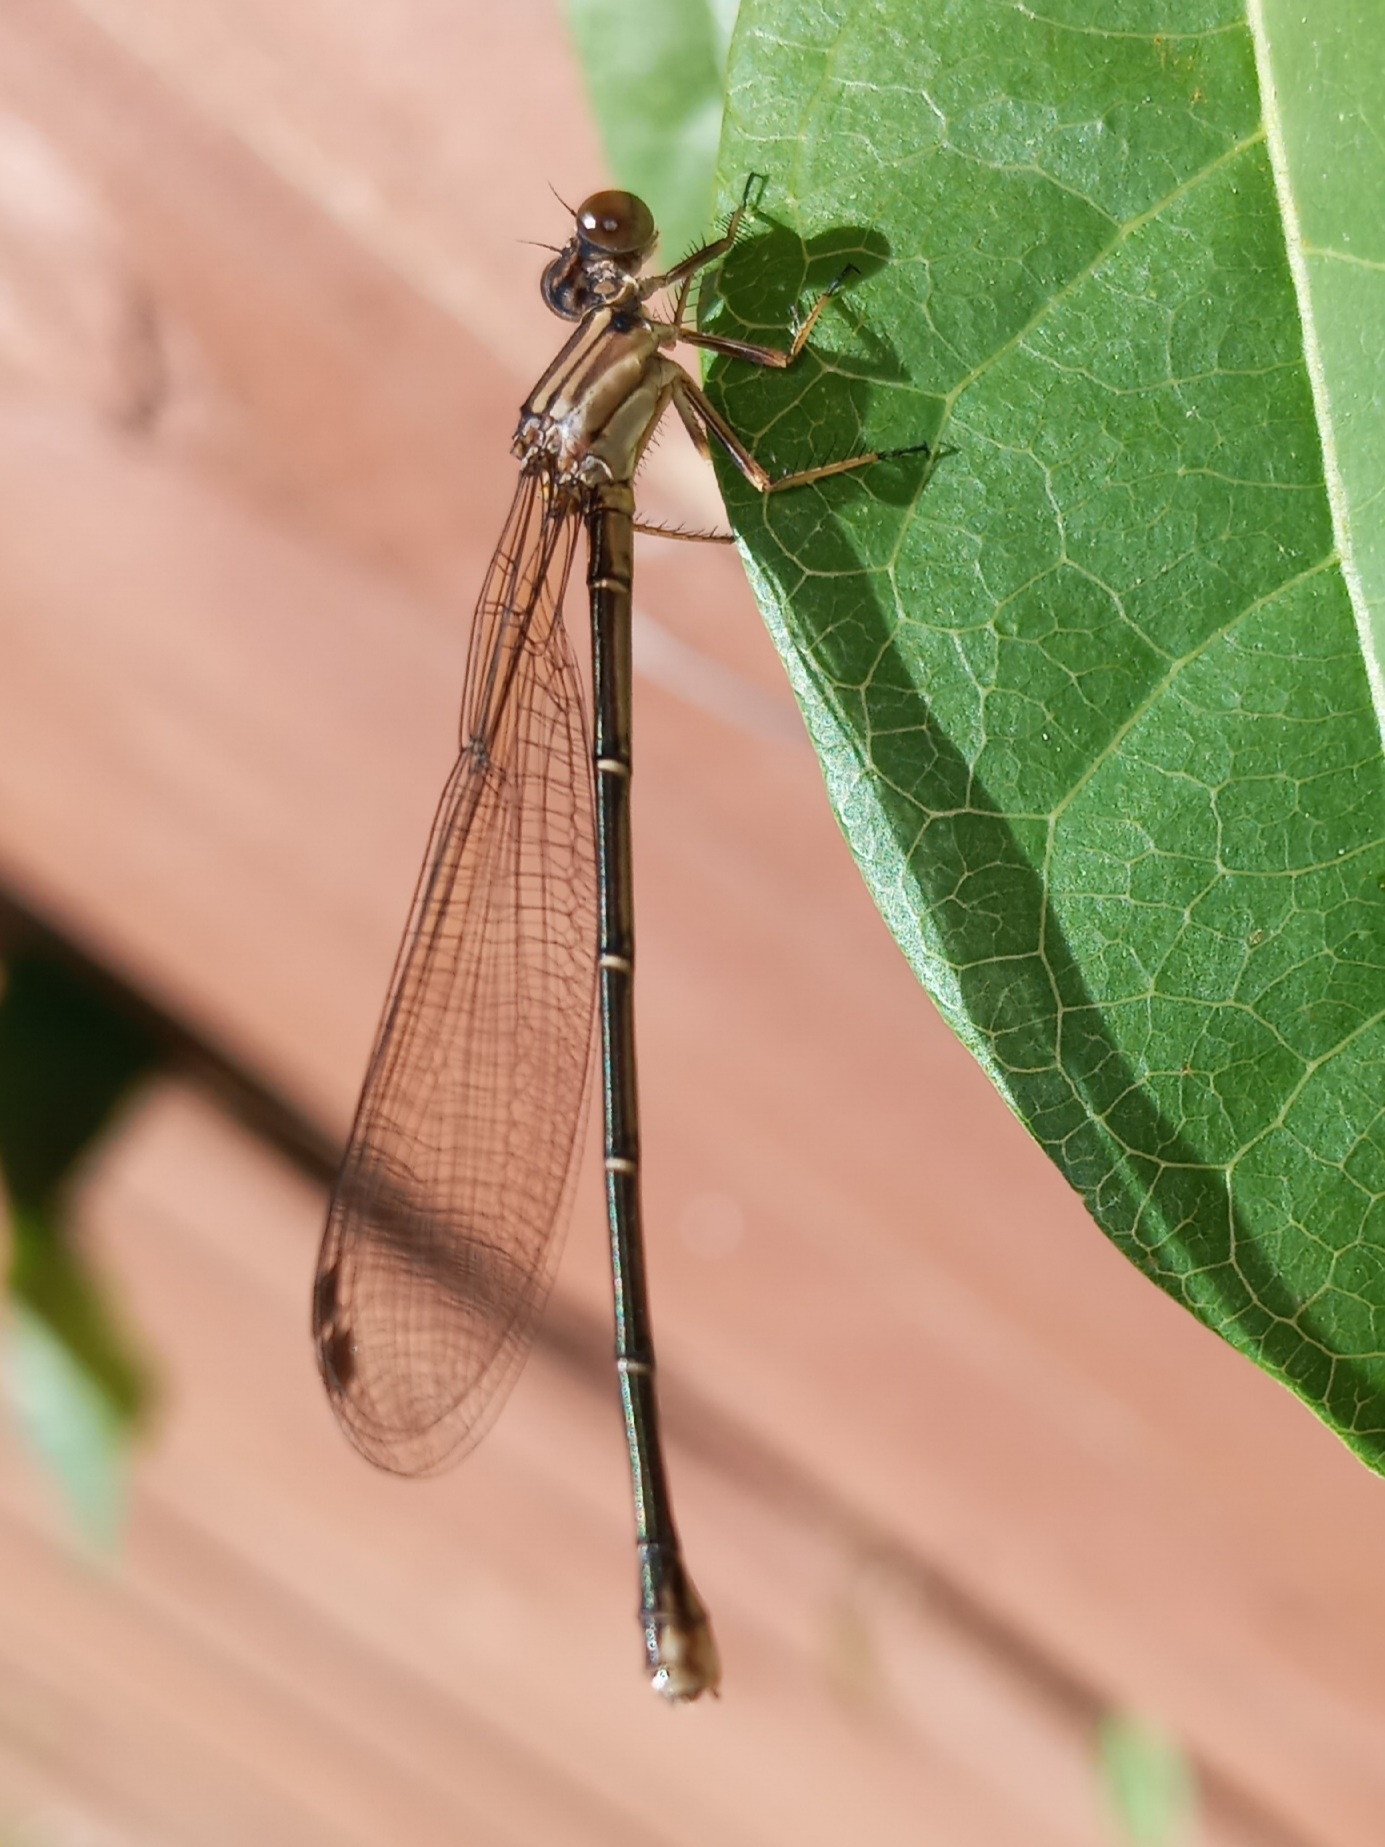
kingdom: Animalia
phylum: Arthropoda
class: Insecta
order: Odonata
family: Coenagrionidae
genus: Argia
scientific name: Argia moesta
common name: Powdered dancer
